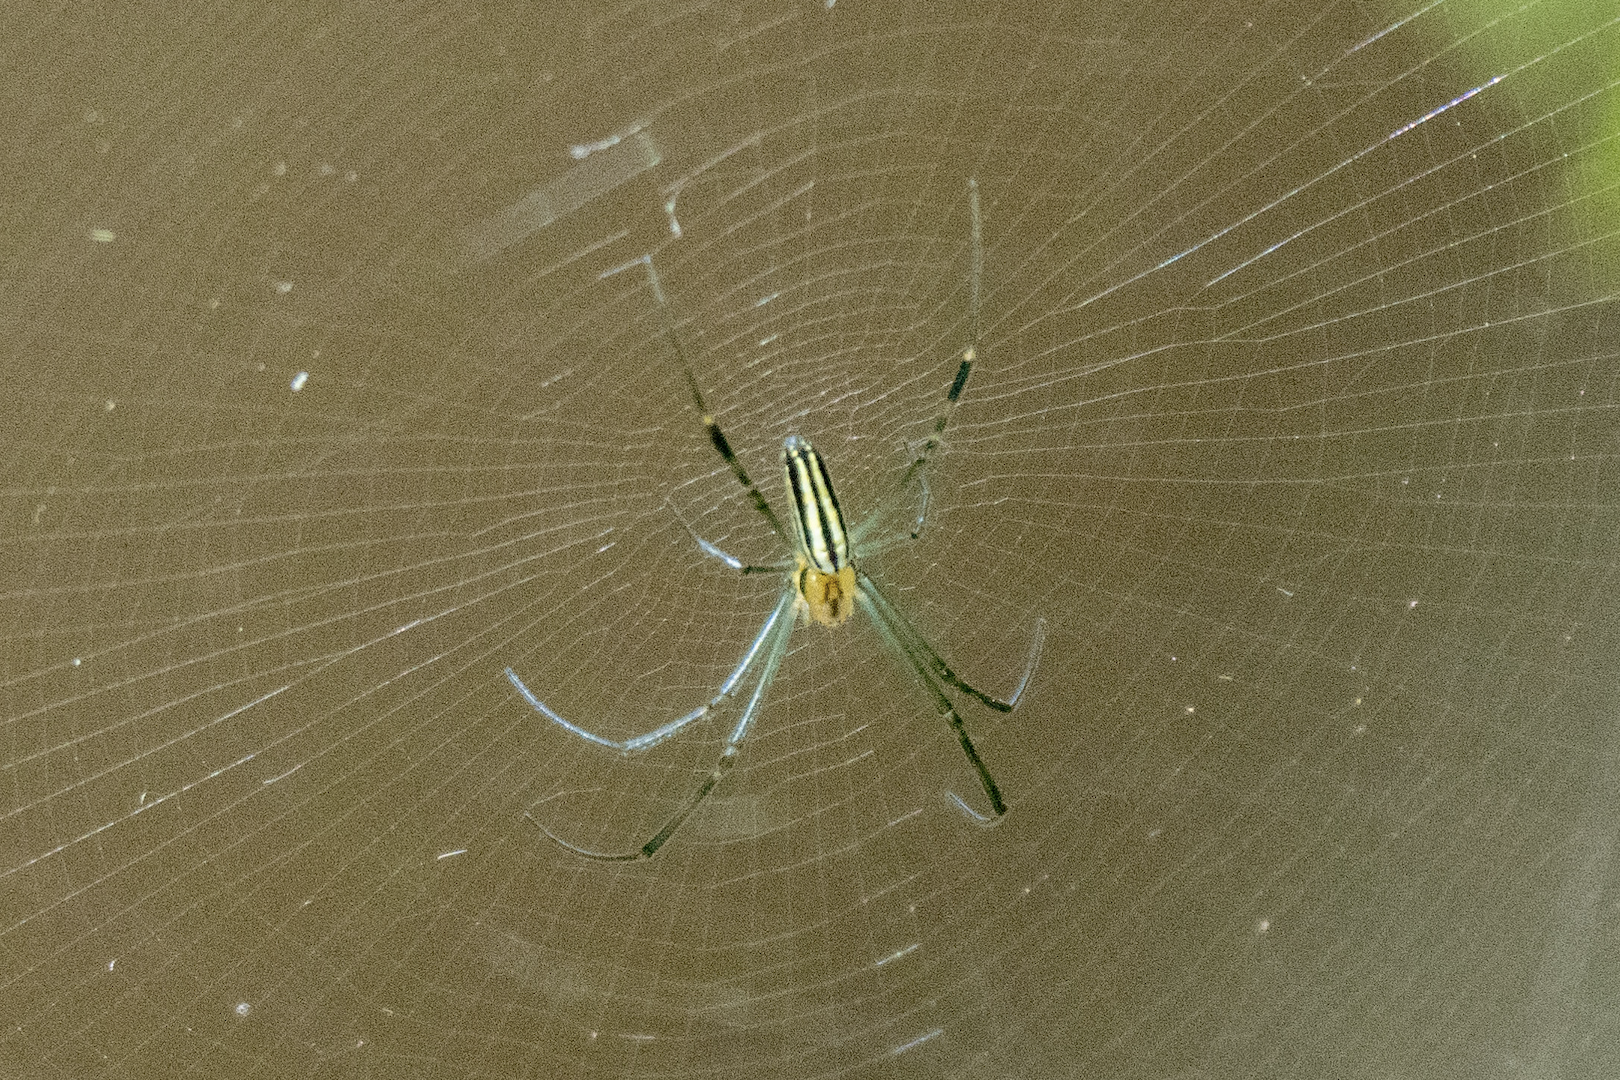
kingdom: Animalia
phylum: Arthropoda
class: Arachnida
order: Araneae
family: Araneidae
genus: Nephila
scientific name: Nephila pilipes
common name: Giant golden orb weaver
